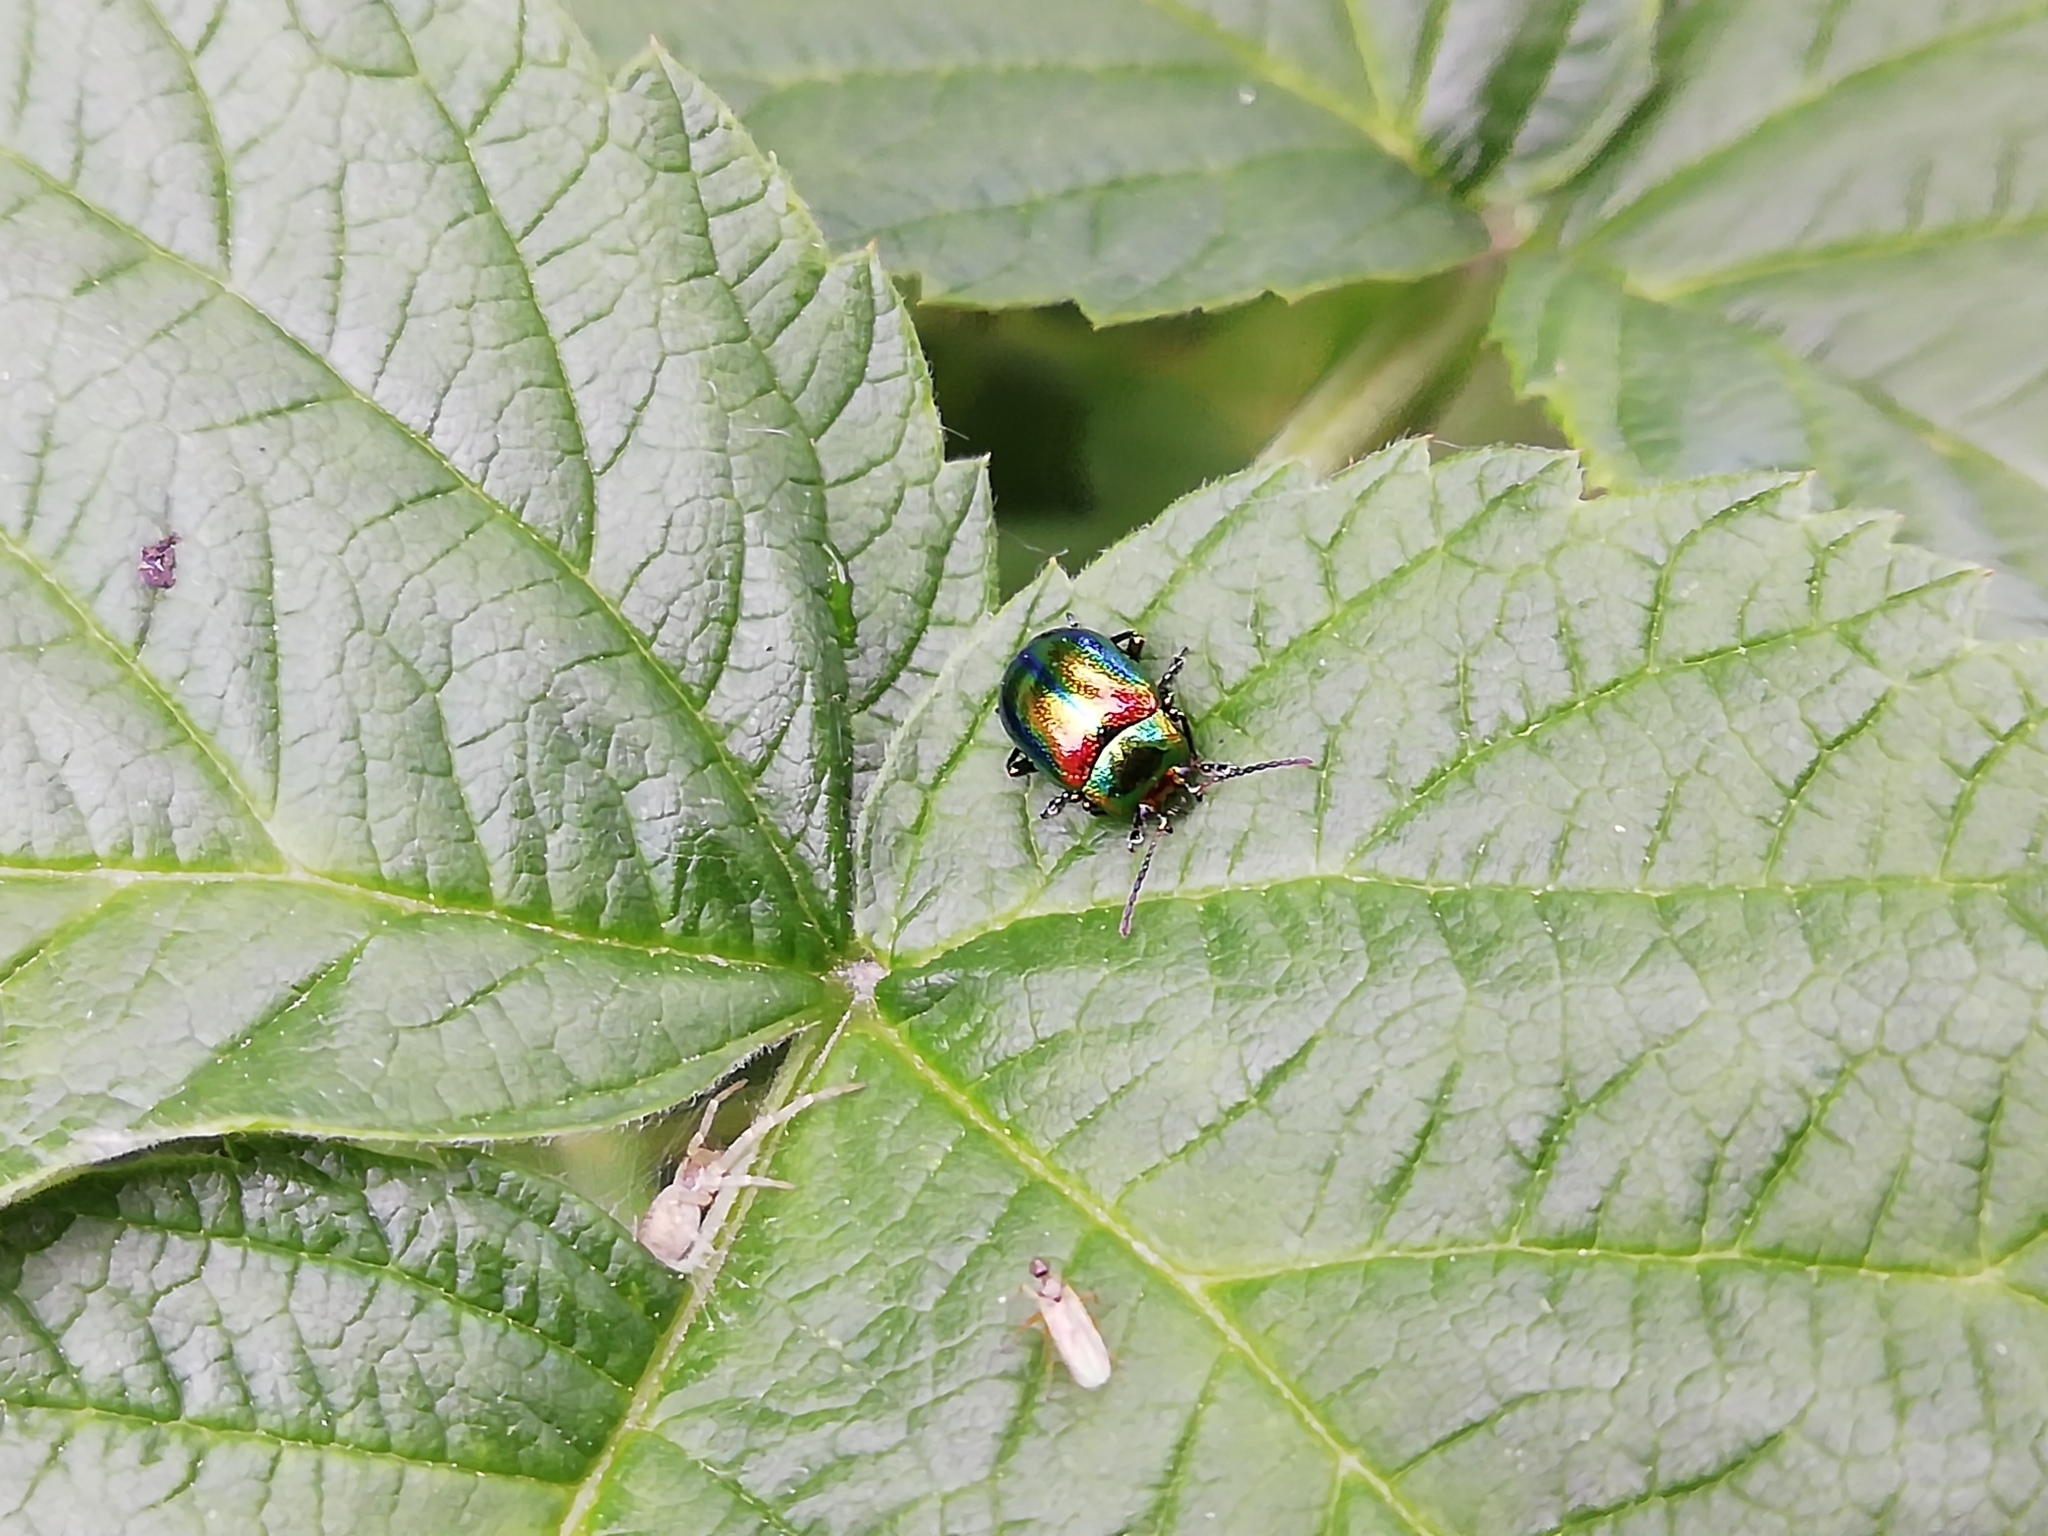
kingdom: Animalia
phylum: Arthropoda
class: Insecta
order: Coleoptera
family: Chrysomelidae
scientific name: Chrysomelidae
